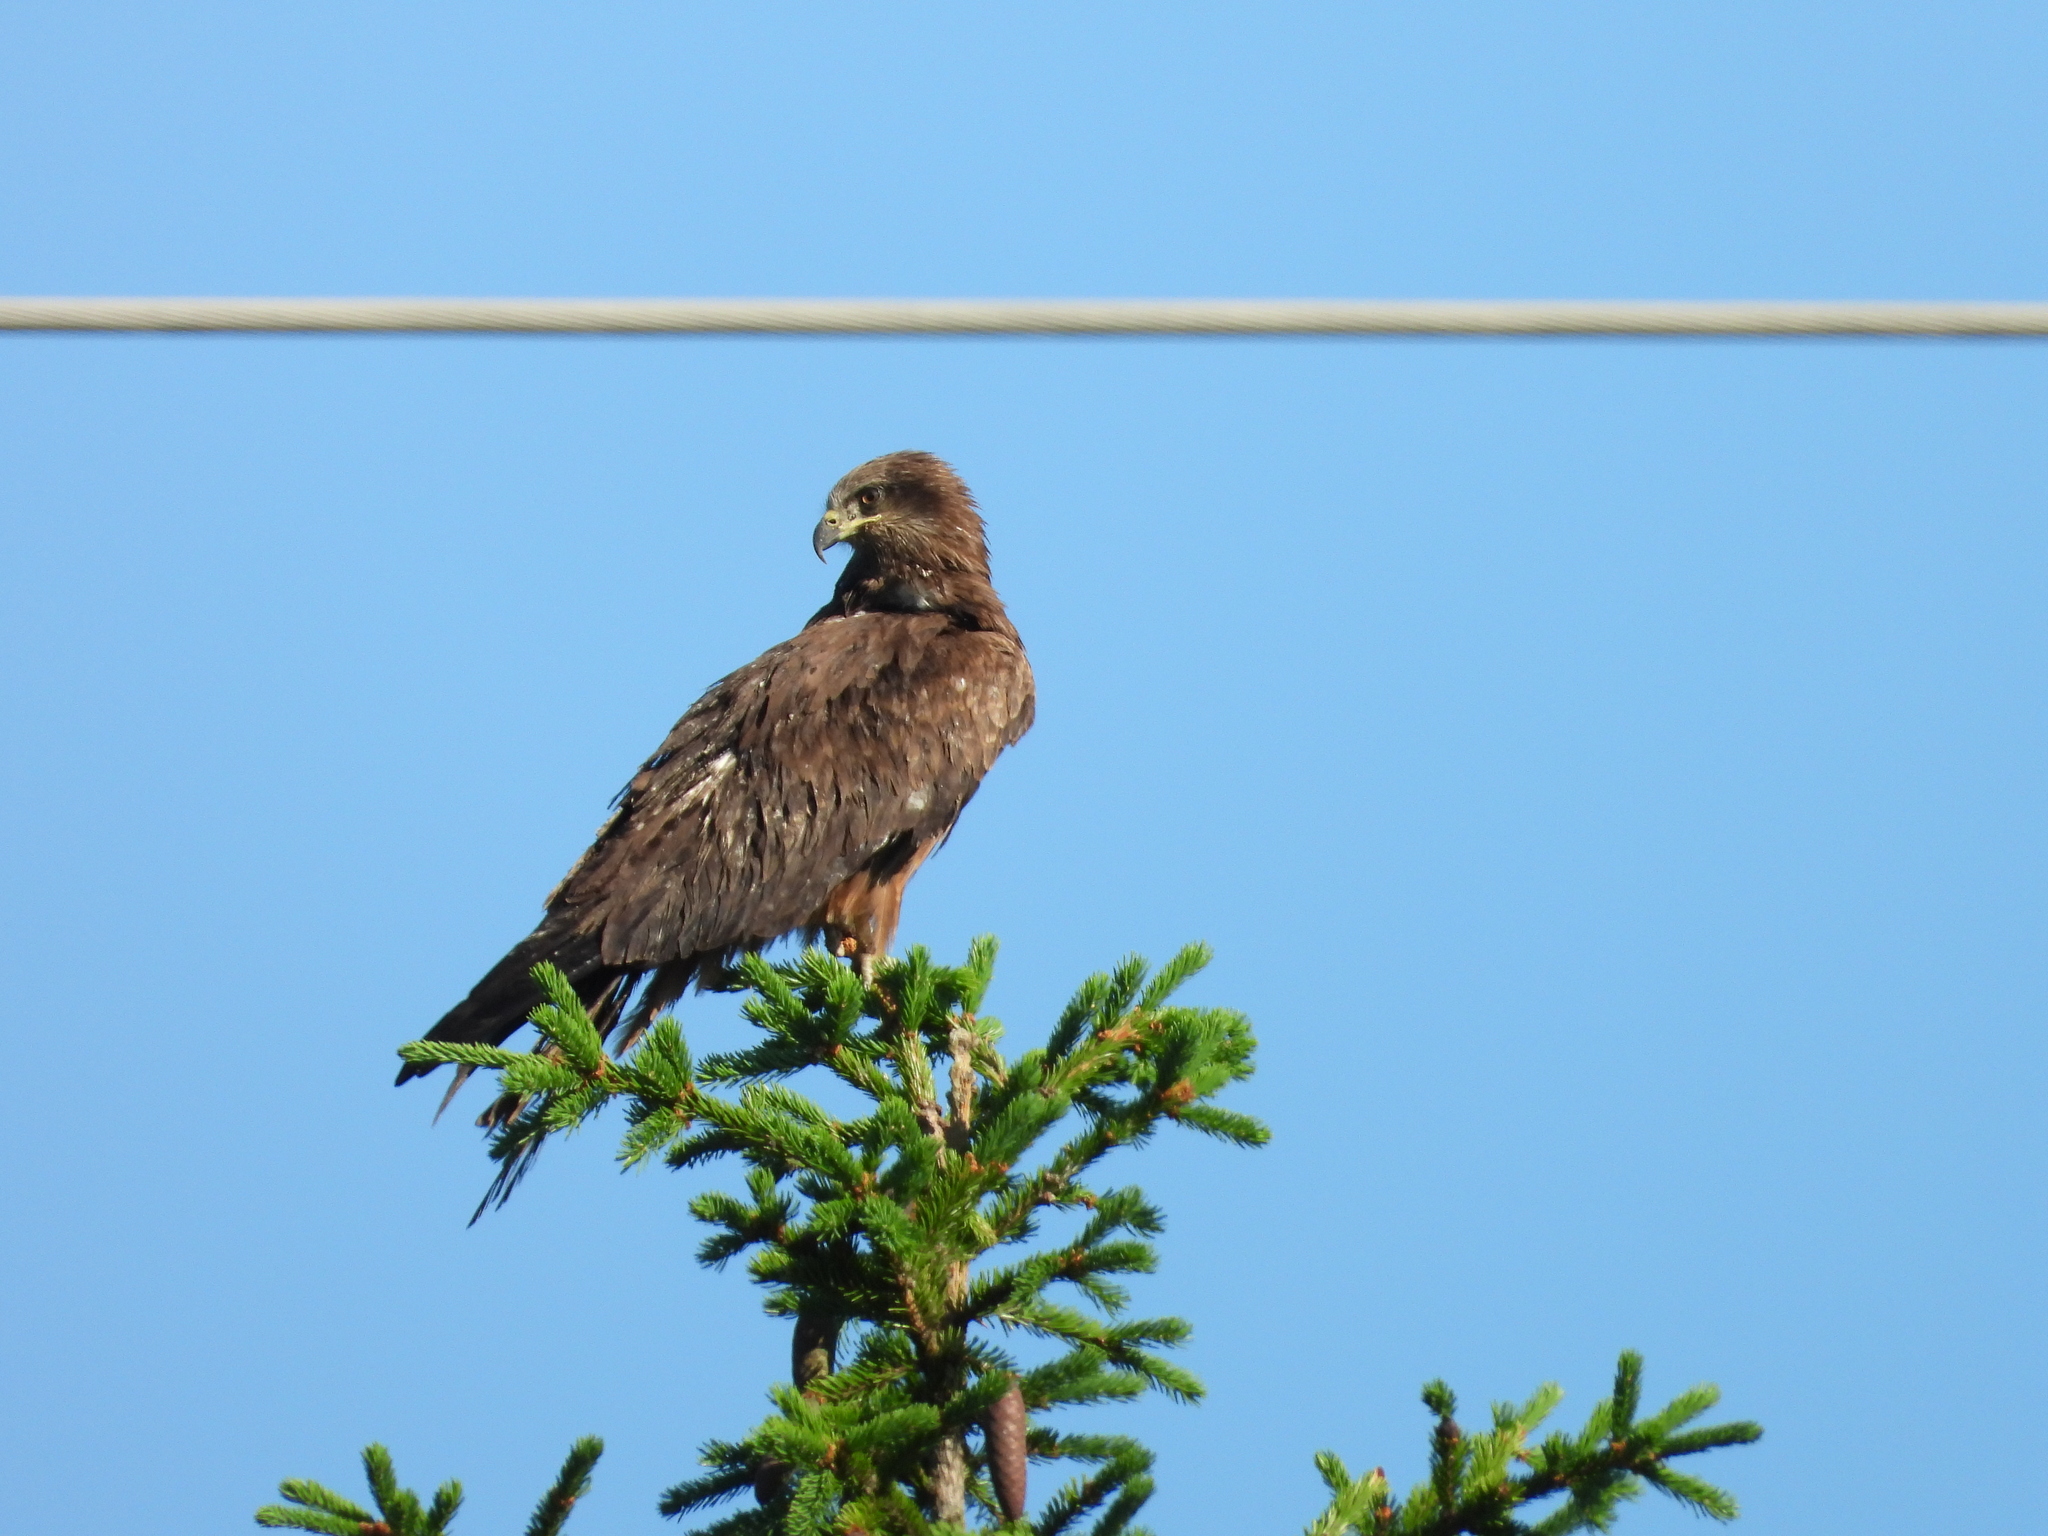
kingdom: Animalia
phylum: Chordata
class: Aves
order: Accipitriformes
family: Accipitridae
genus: Milvus
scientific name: Milvus migrans
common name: Black kite
